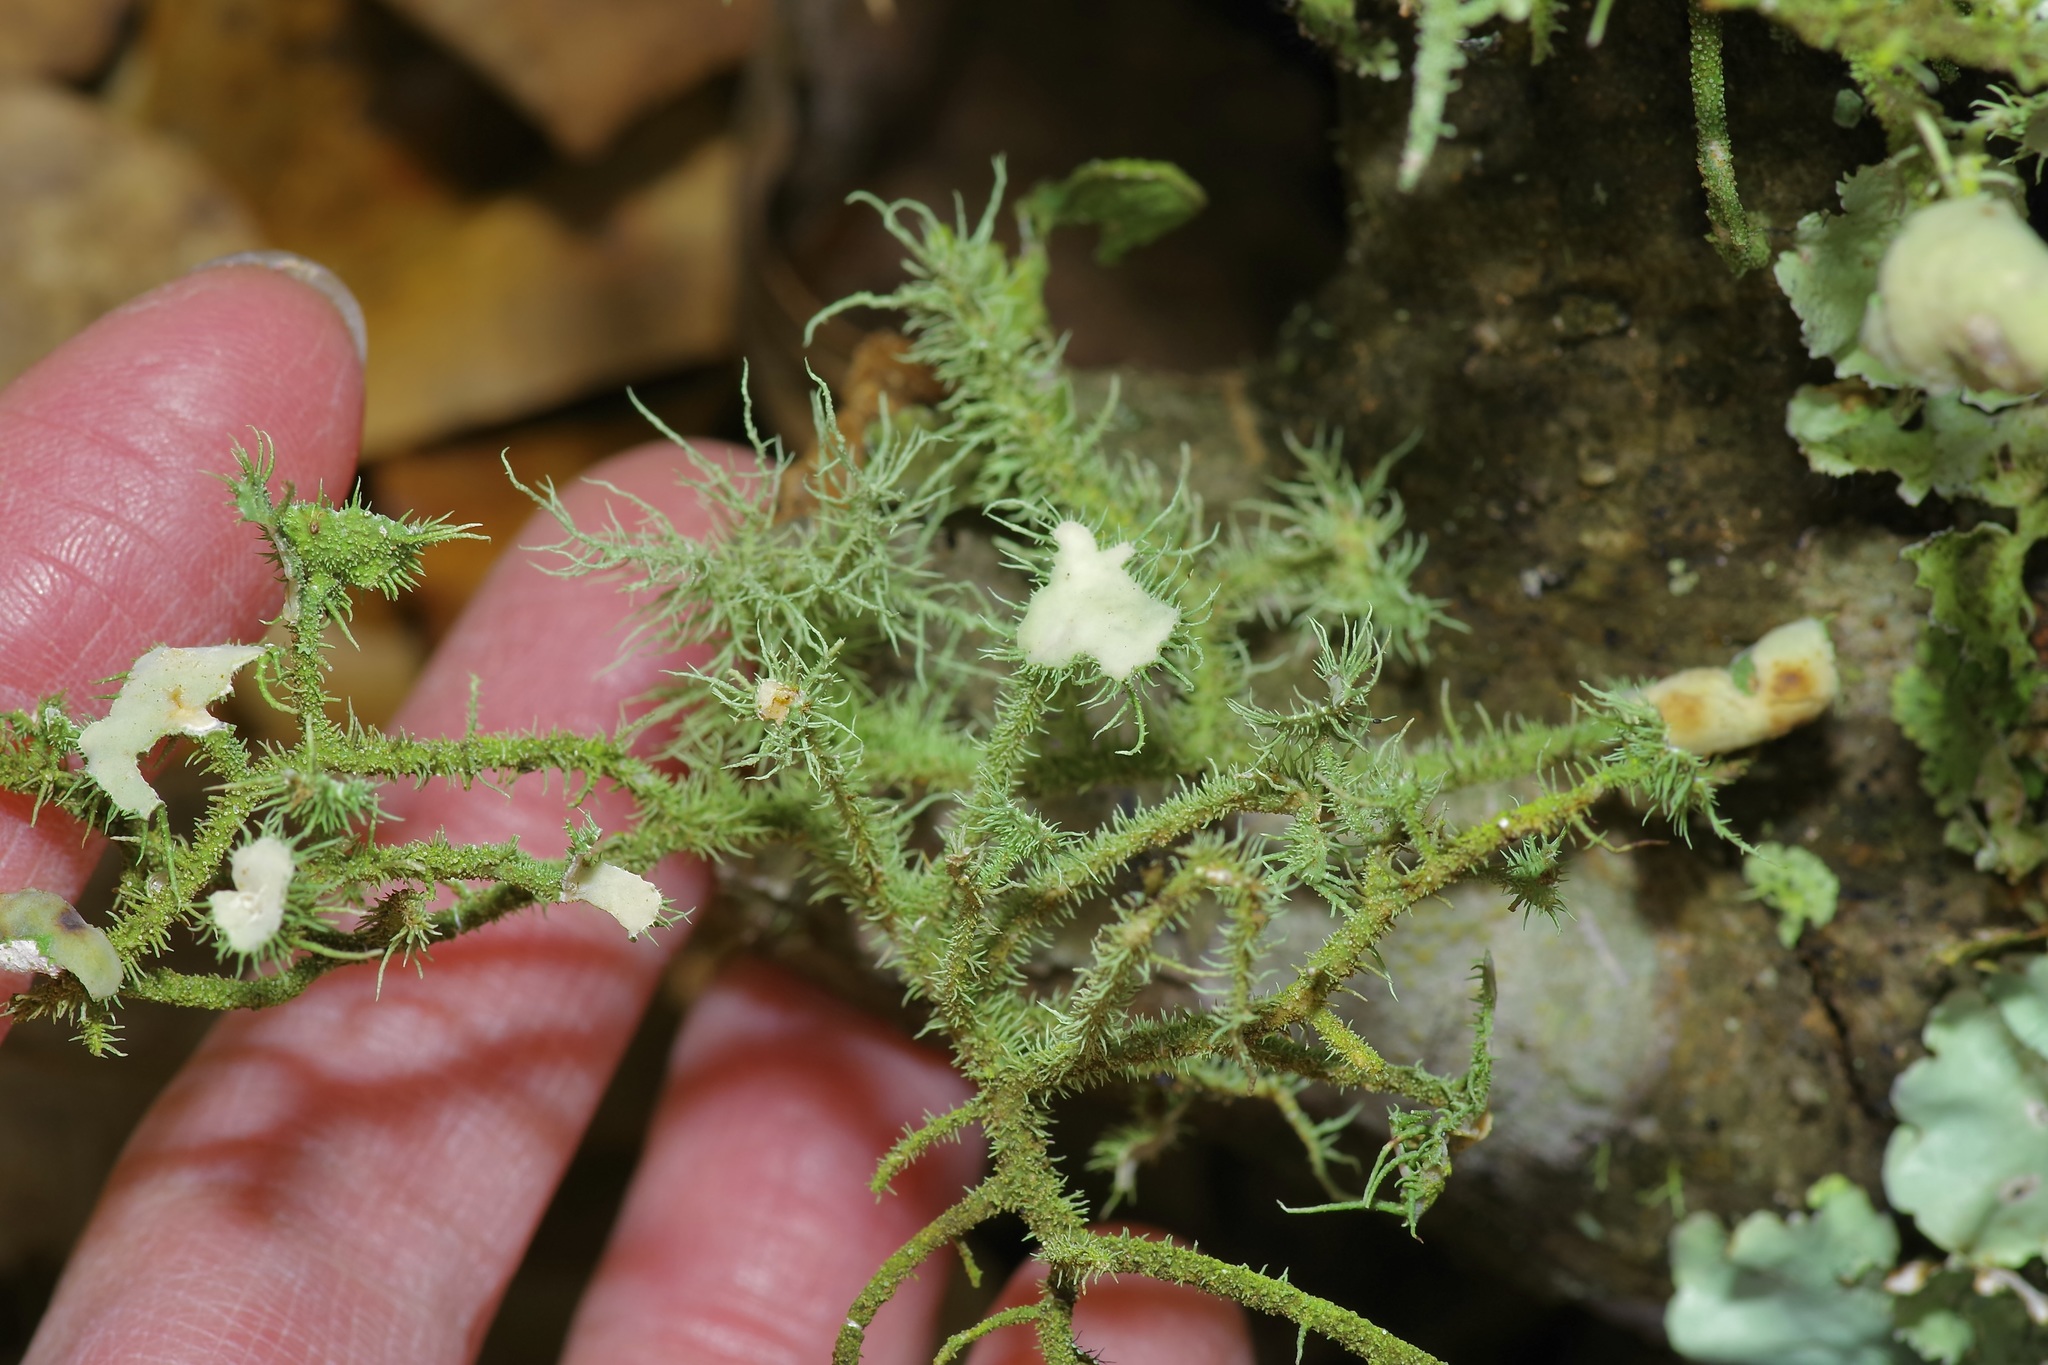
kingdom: Fungi
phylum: Ascomycota
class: Lecanoromycetes
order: Lecanorales
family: Parmeliaceae
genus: Usnea
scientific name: Usnea strigosa
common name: Bushy beard lichen
